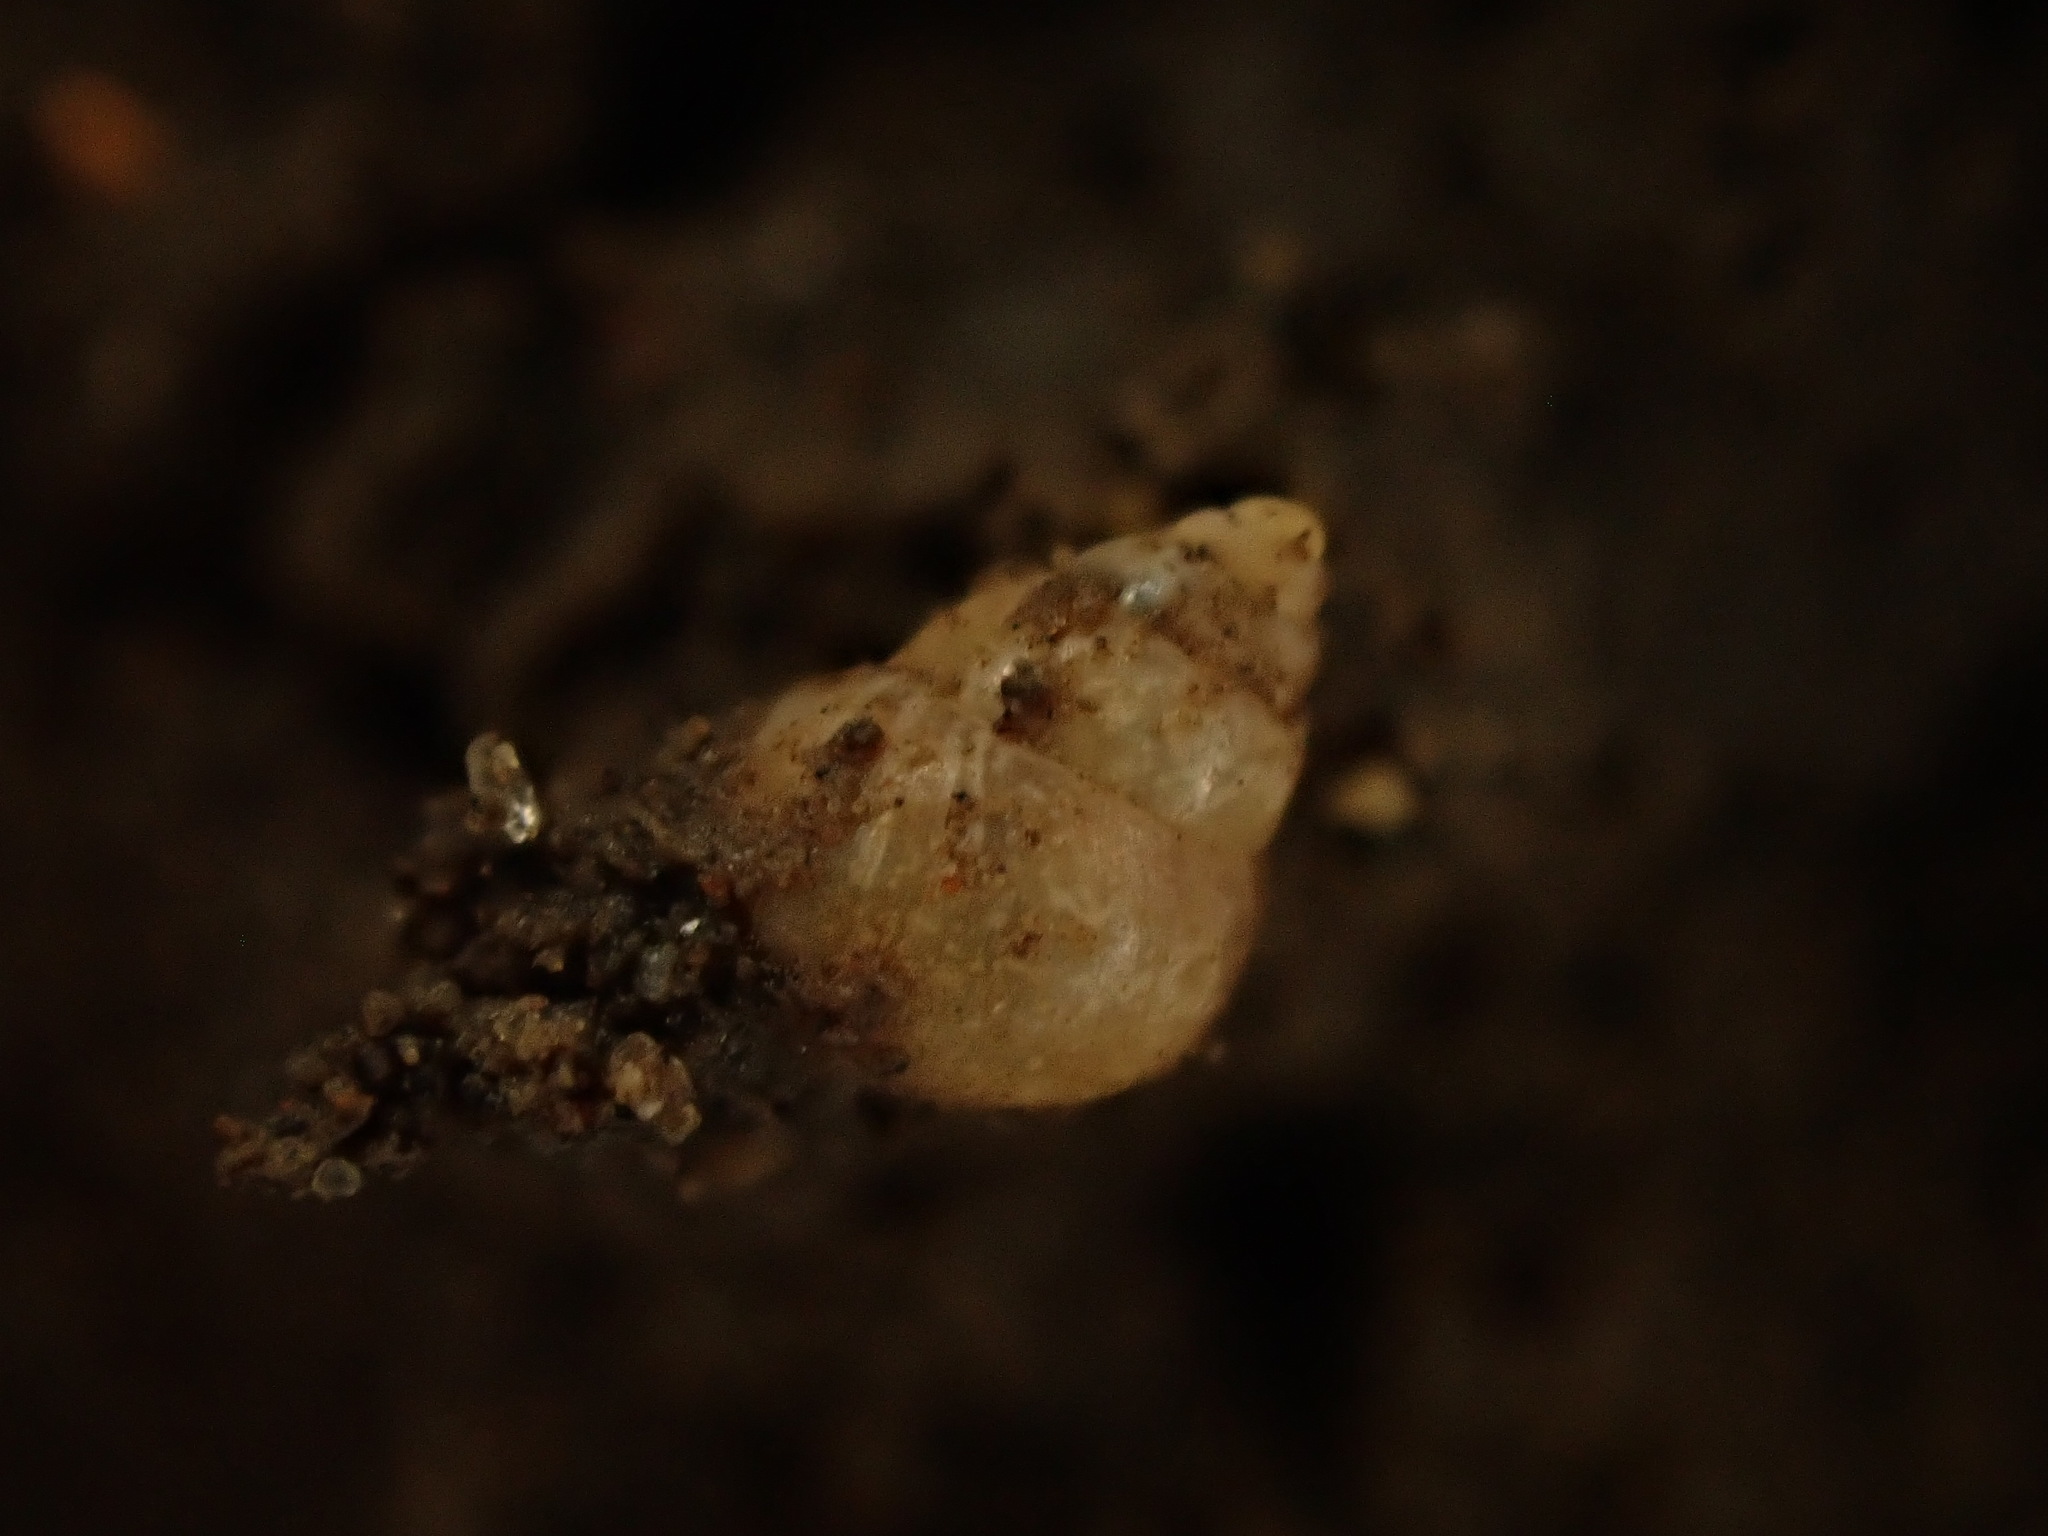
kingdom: Animalia
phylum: Mollusca
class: Gastropoda
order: Littorinimorpha
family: Assimineidae
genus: Assiminea
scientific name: Assiminea
